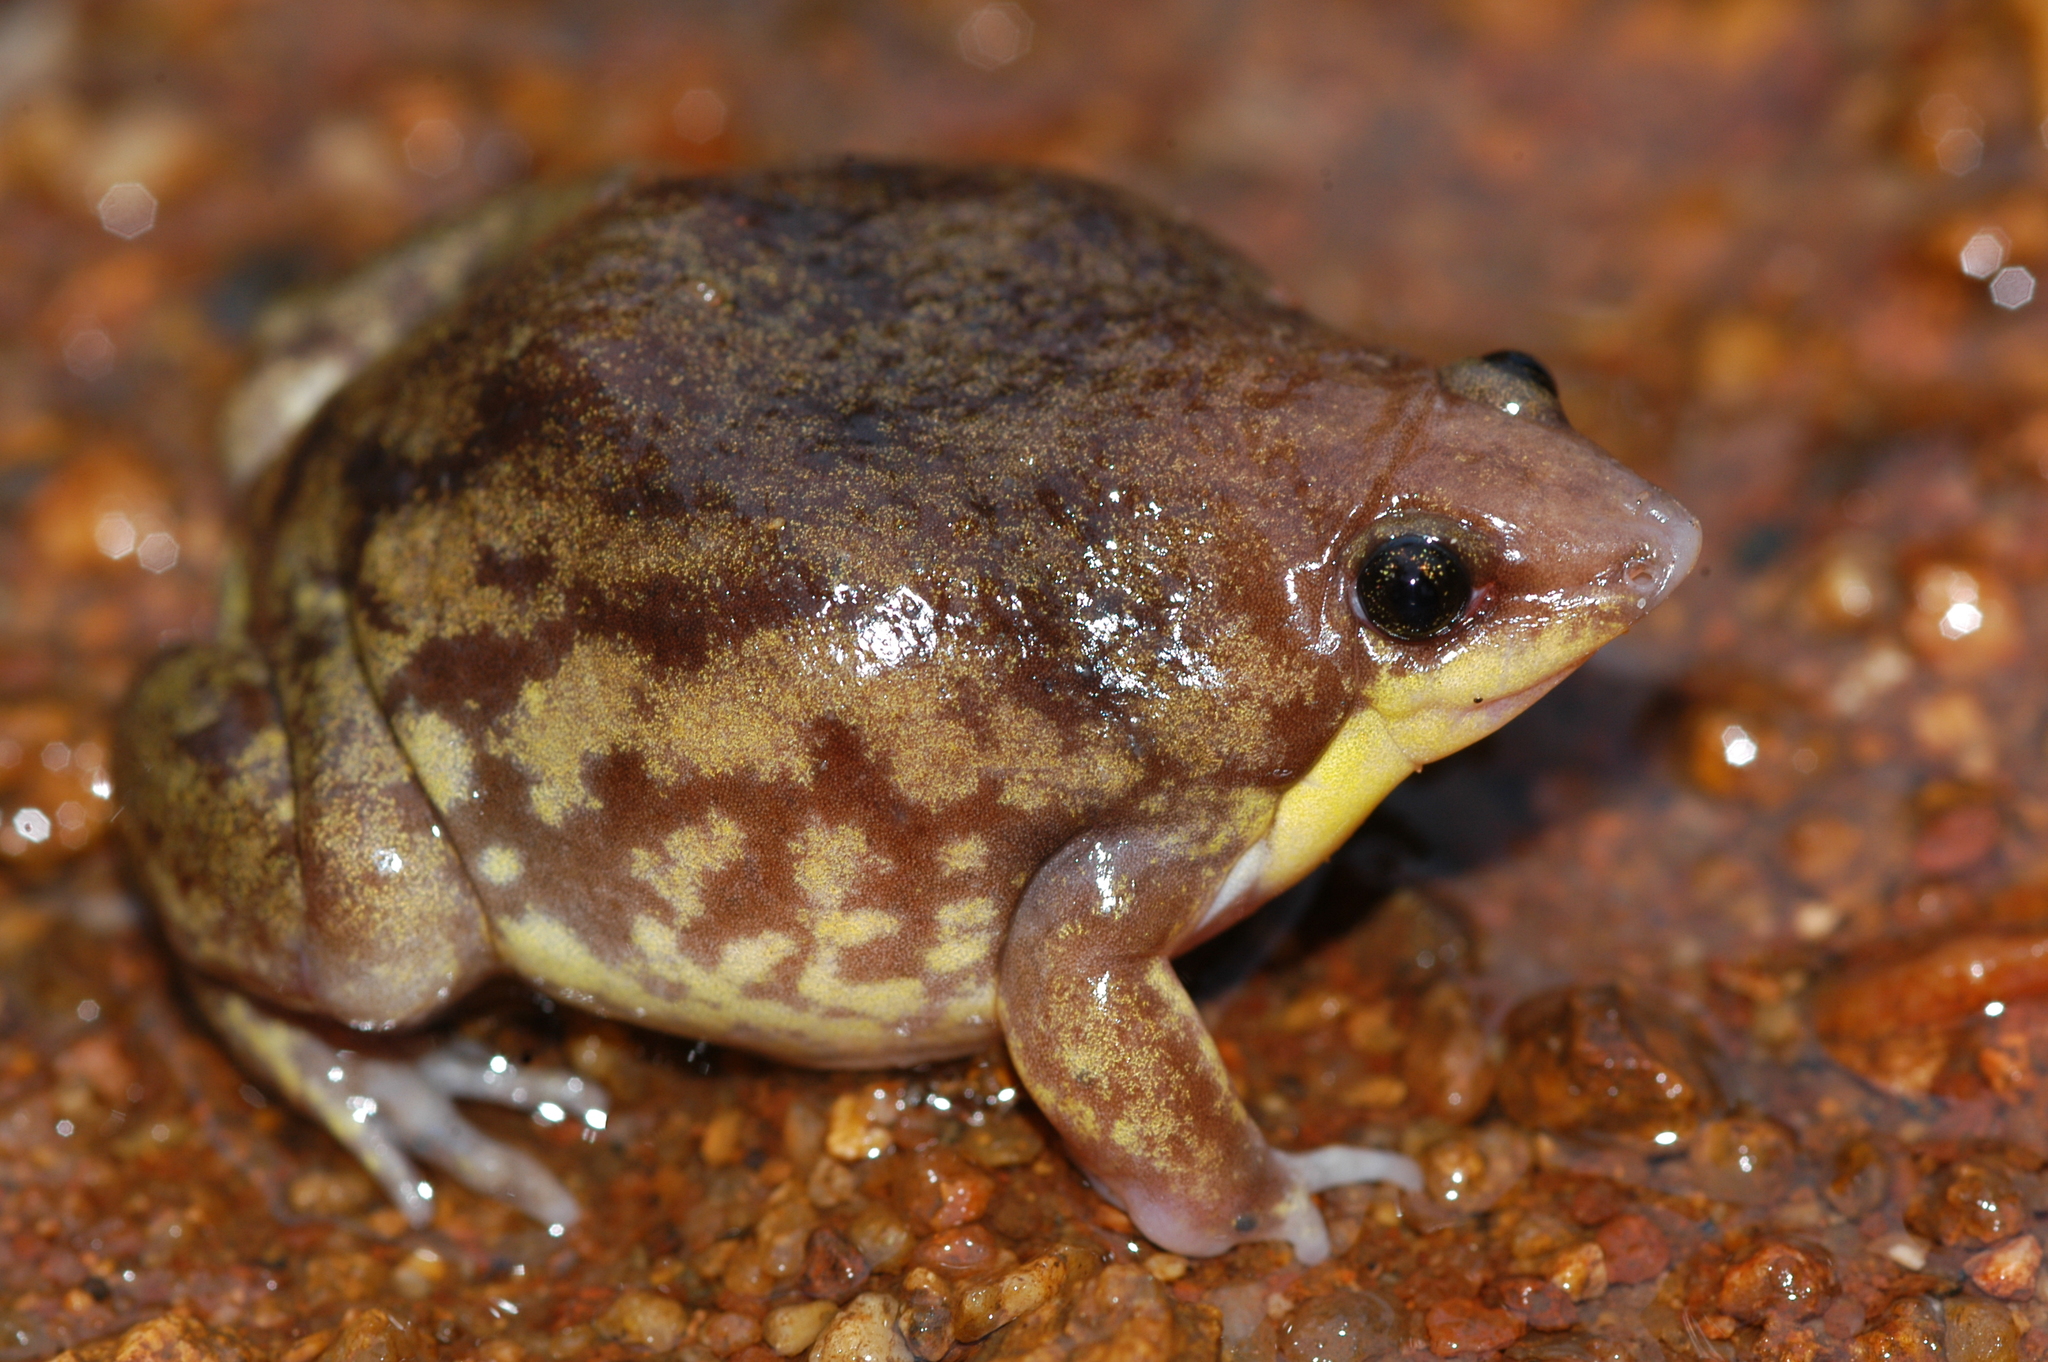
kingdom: Animalia
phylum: Chordata
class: Amphibia
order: Anura
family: Hemisotidae
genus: Hemisus
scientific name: Hemisus marmoratus
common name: Mottled shovel-nosed frog
